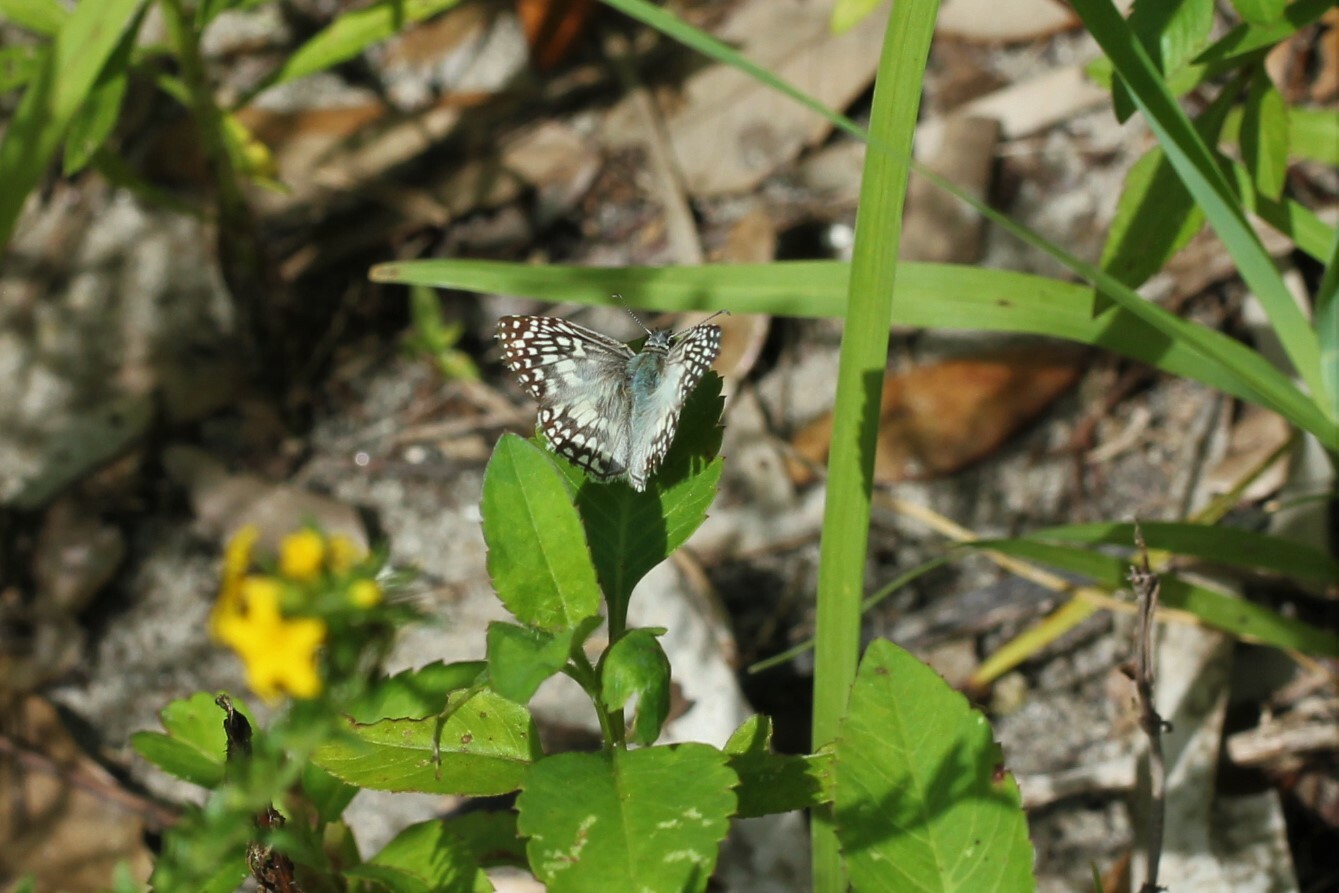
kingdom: Animalia
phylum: Arthropoda
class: Insecta
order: Lepidoptera
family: Hesperiidae
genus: Pyrgus
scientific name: Pyrgus oileus
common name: Tropical checkered-skipper
